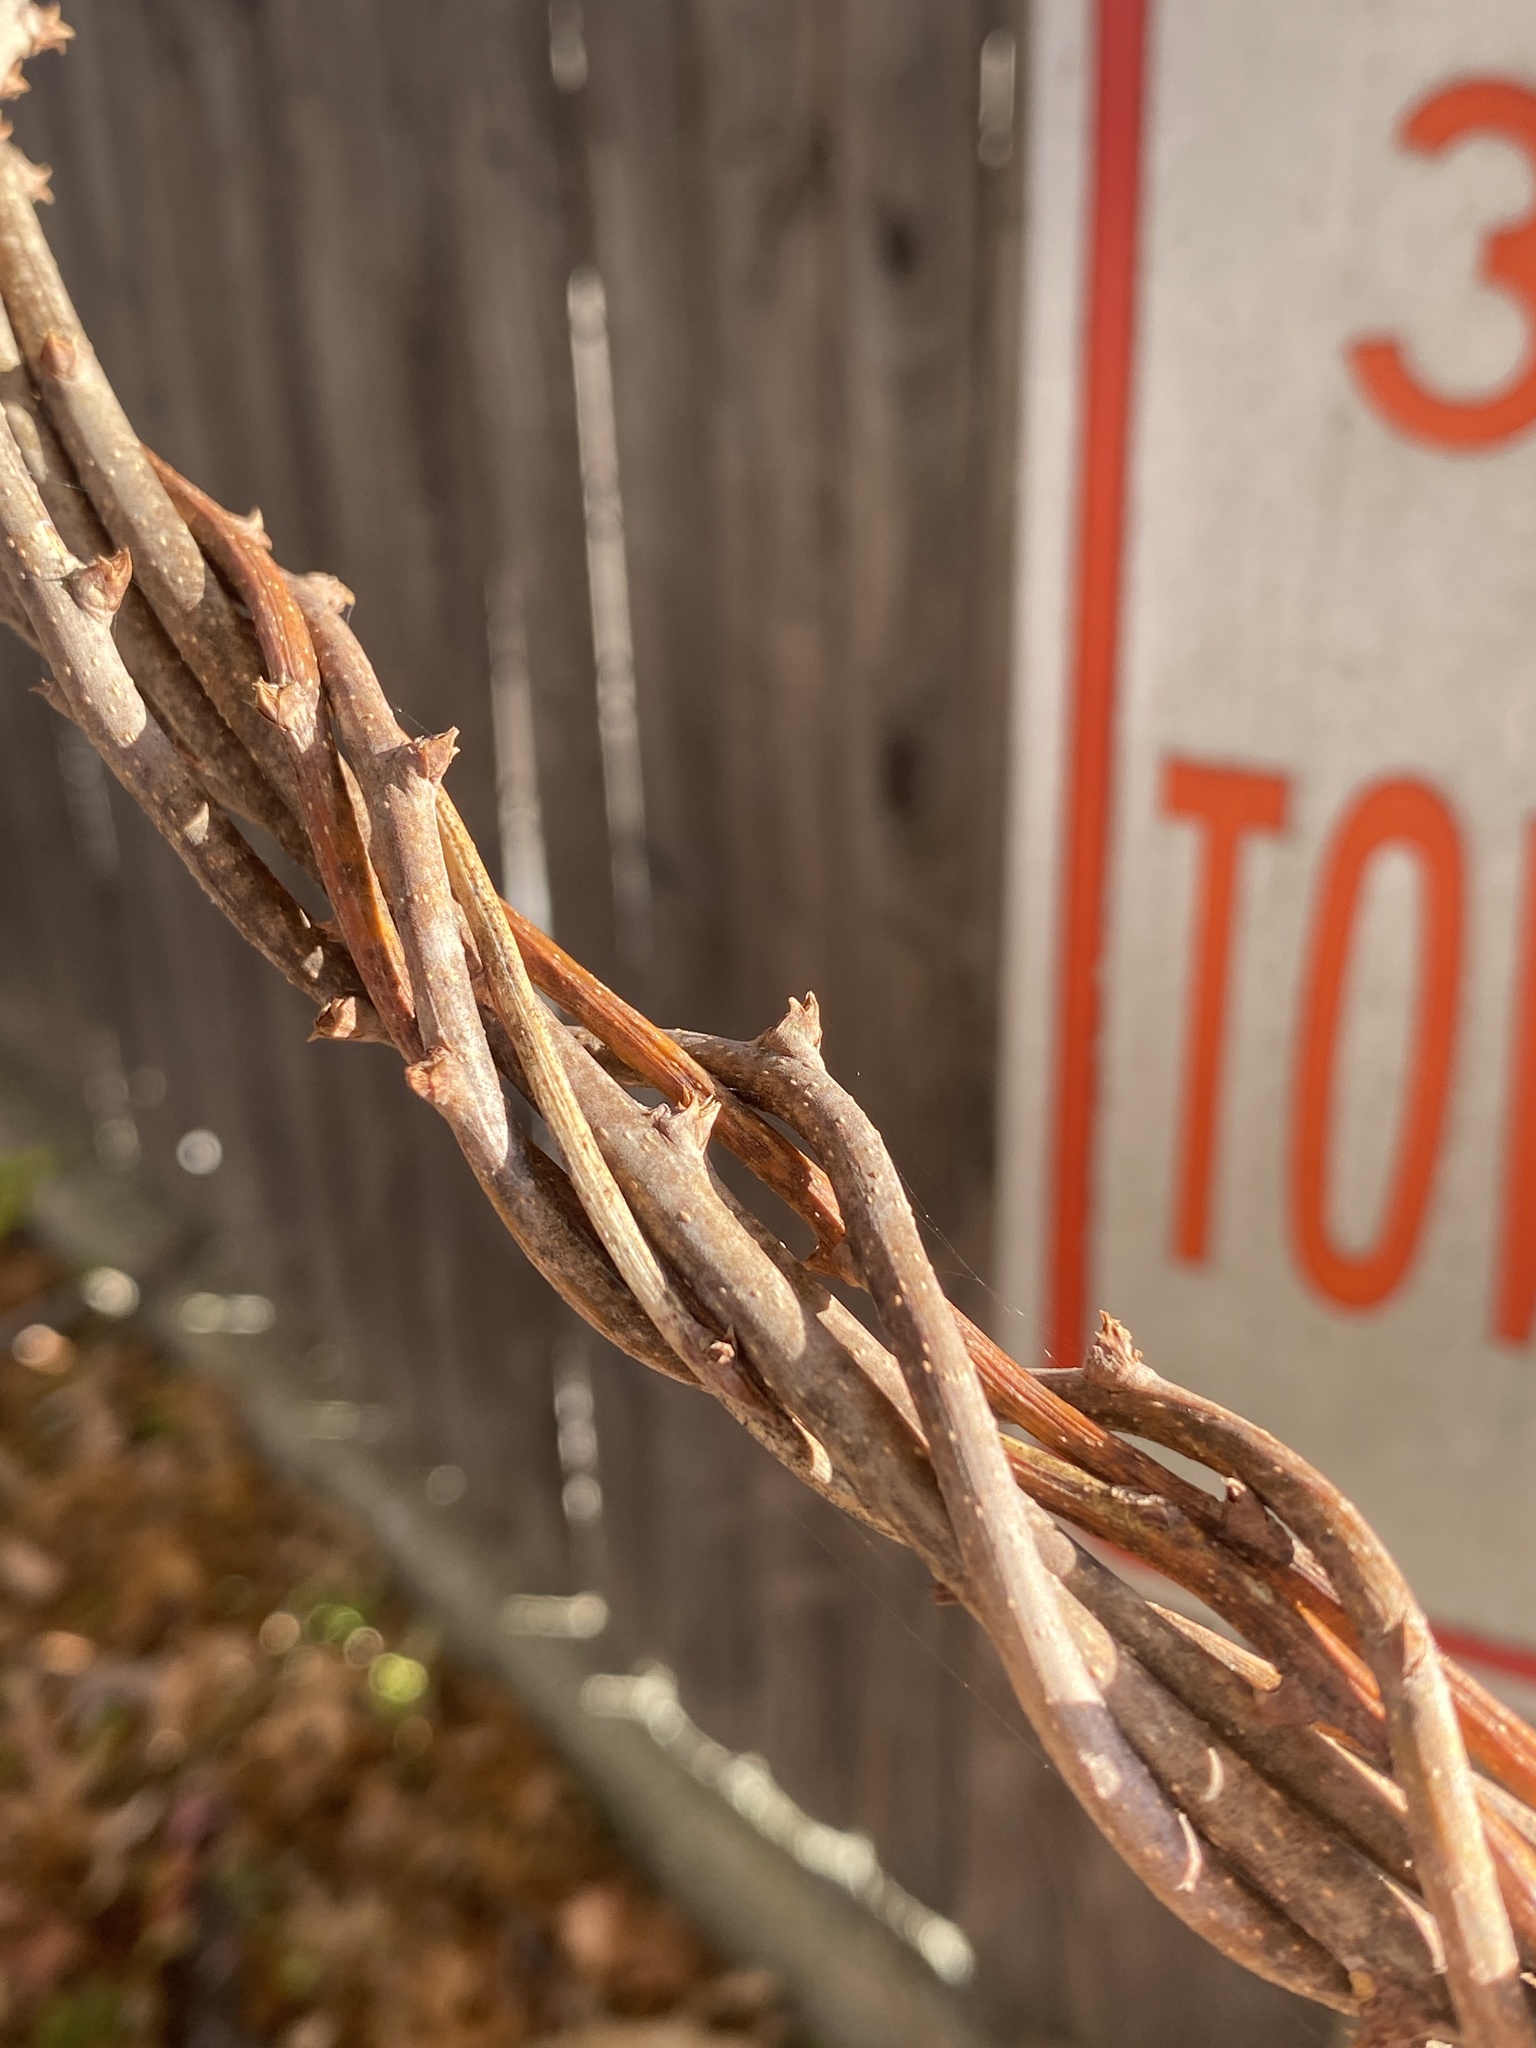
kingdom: Plantae
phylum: Tracheophyta
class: Magnoliopsida
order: Celastrales
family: Celastraceae
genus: Celastrus
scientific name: Celastrus orbiculatus
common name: Oriental bittersweet
